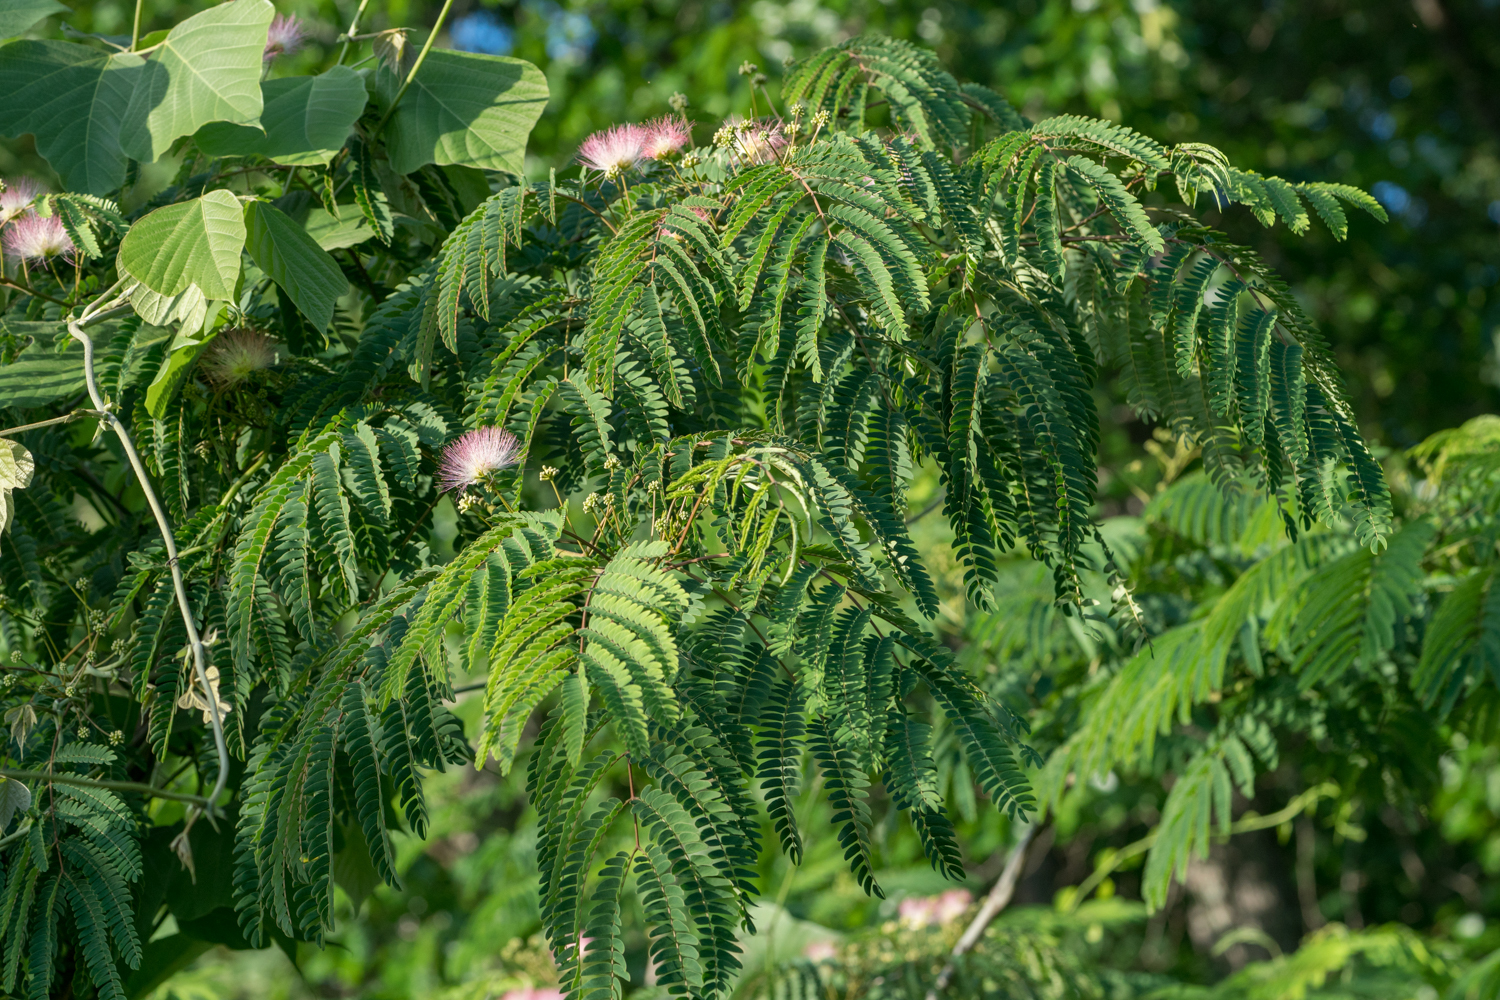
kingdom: Plantae
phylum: Tracheophyta
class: Magnoliopsida
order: Fabales
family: Fabaceae
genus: Albizia
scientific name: Albizia julibrissin
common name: Silktree
